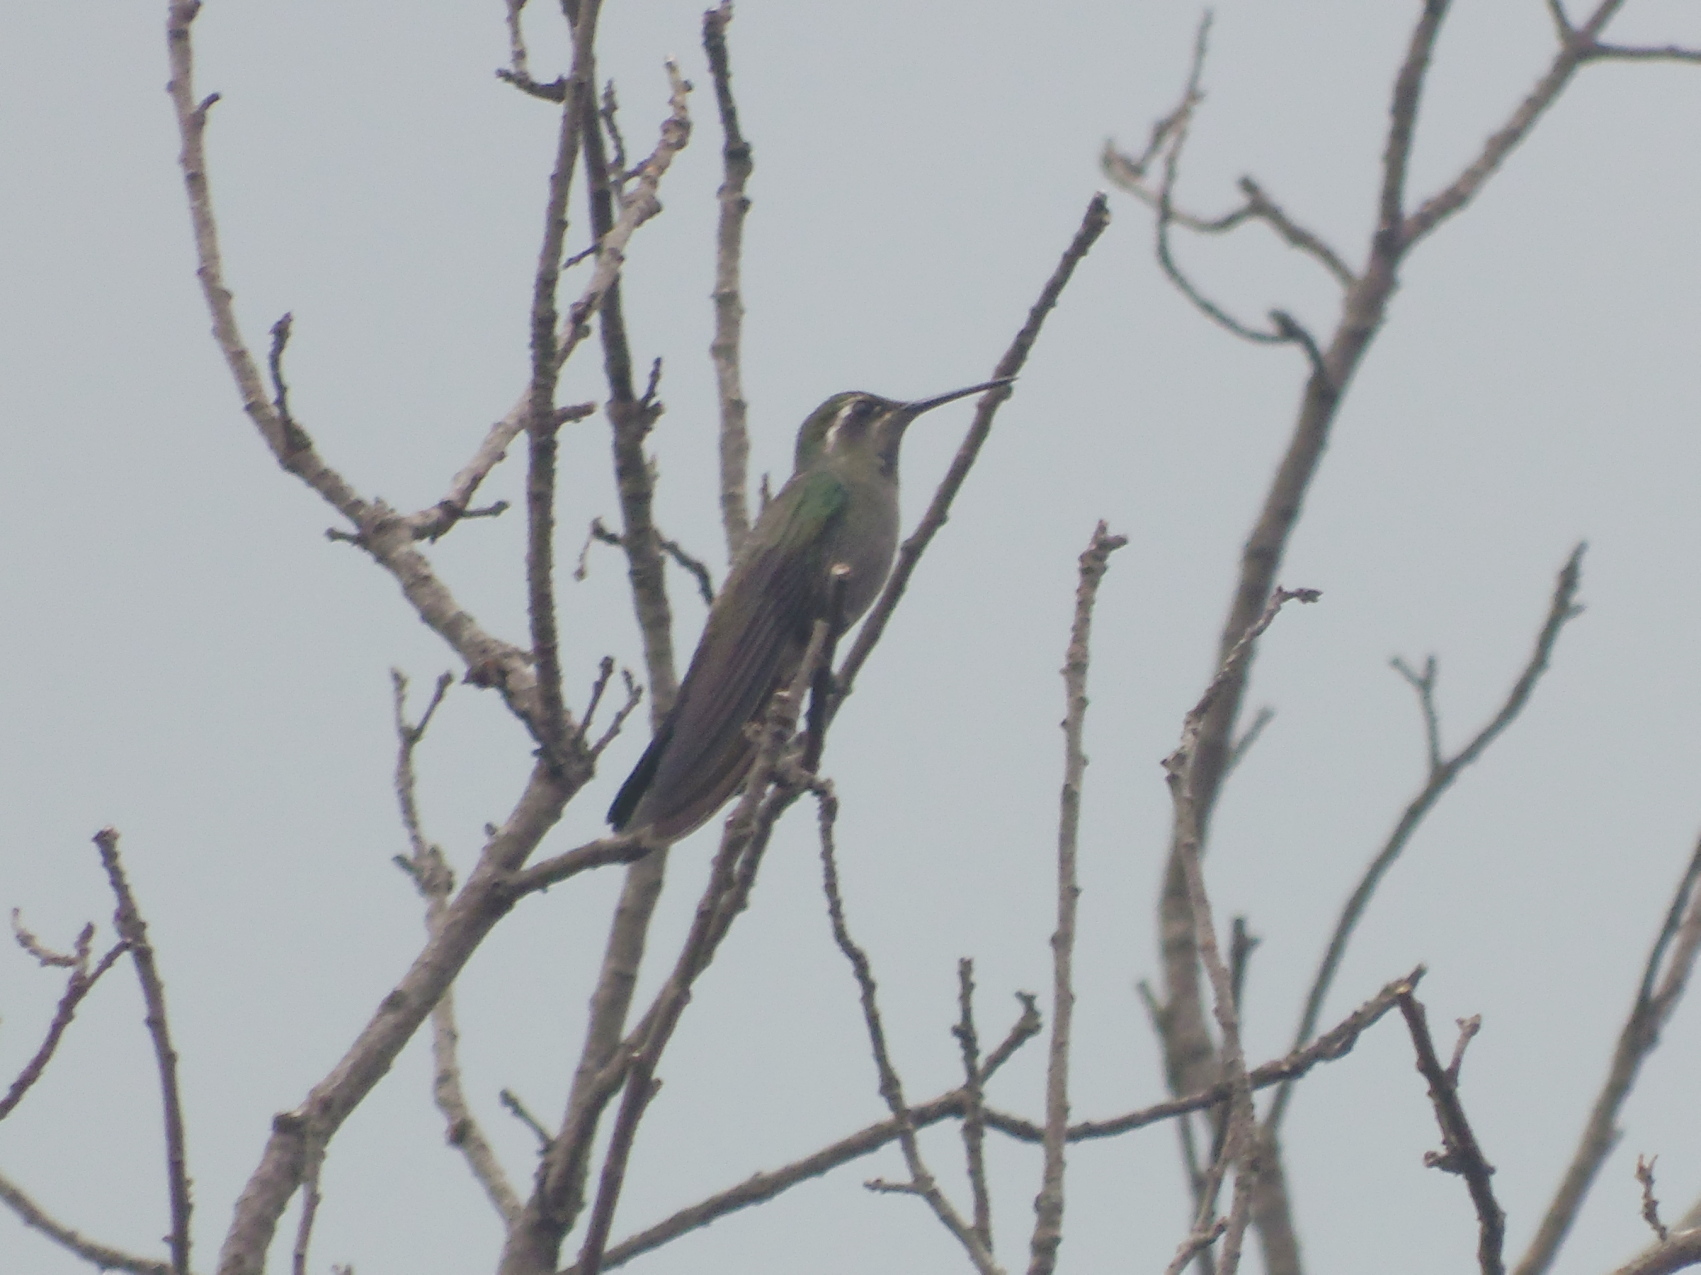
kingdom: Animalia
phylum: Chordata
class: Aves
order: Apodiformes
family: Trochilidae
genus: Lampornis
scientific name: Lampornis clemenciae
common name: Blue-throated mountaingem
